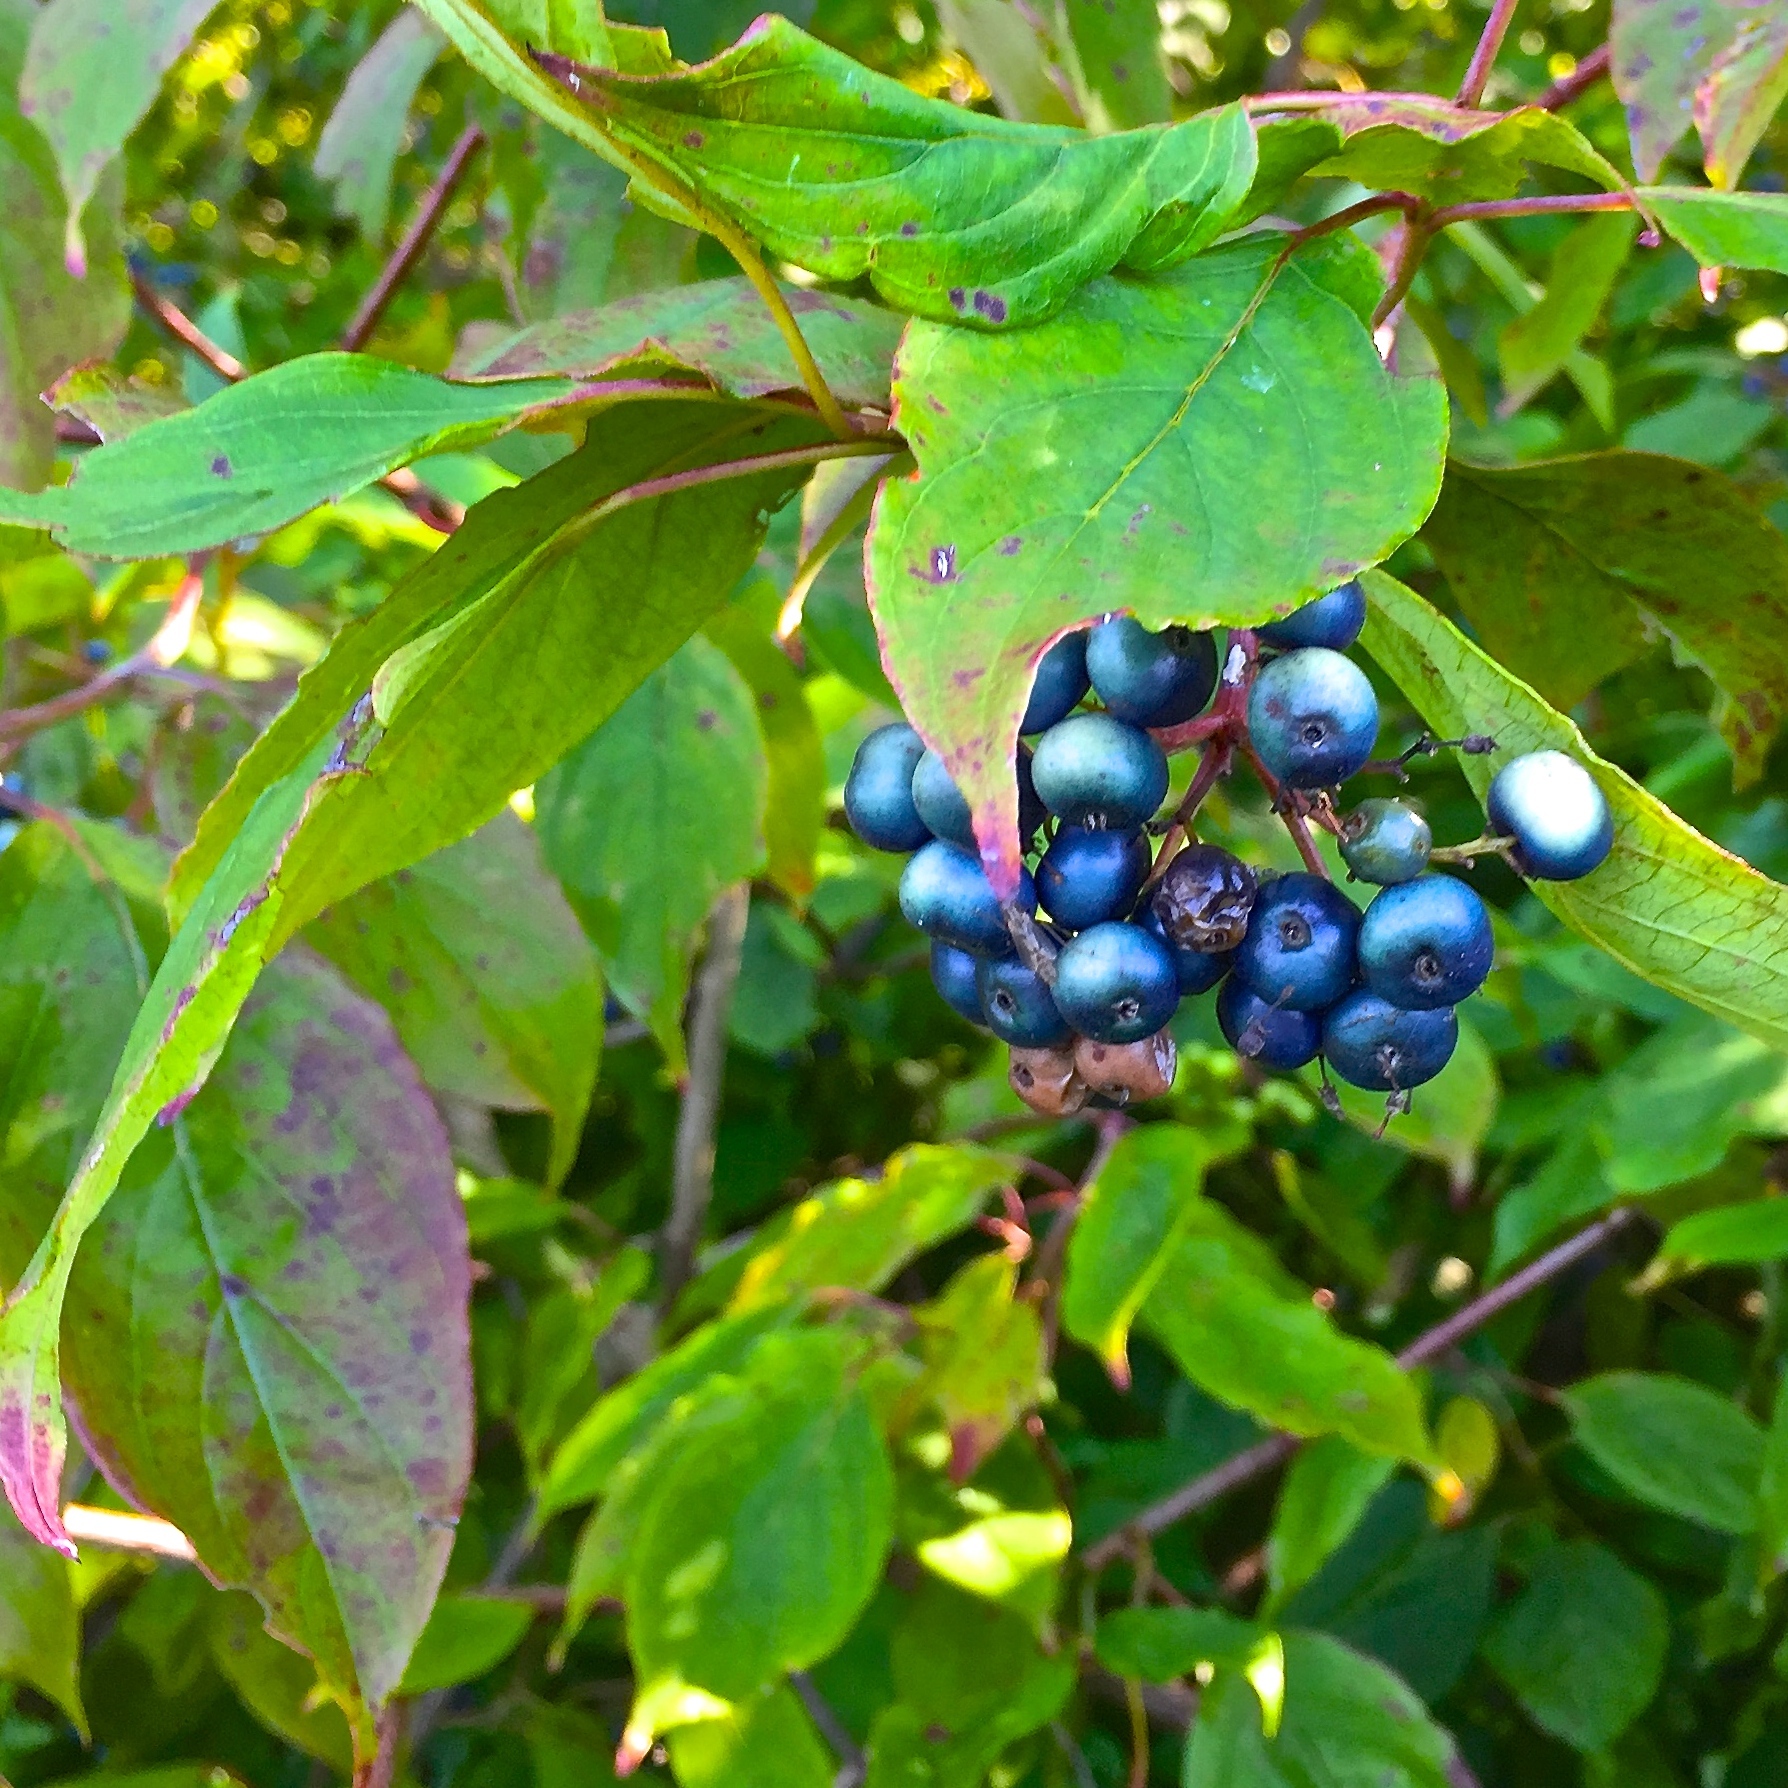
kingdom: Plantae
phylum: Tracheophyta
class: Magnoliopsida
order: Cornales
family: Cornaceae
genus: Cornus
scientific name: Cornus amomum
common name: Silky dogwood
